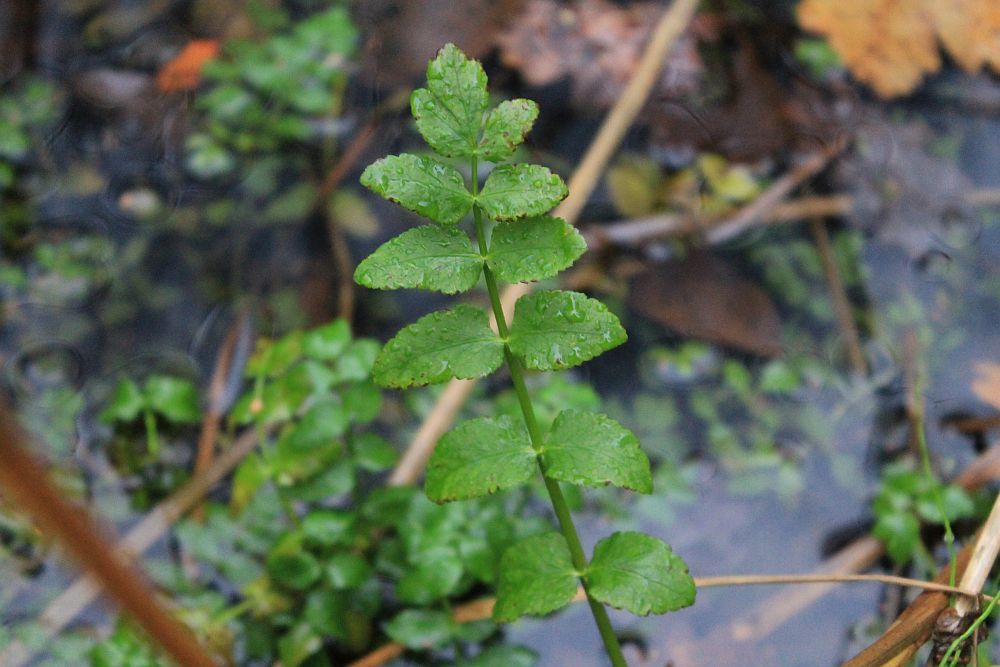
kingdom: Plantae
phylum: Tracheophyta
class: Magnoliopsida
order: Apiales
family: Apiaceae
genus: Helosciadium
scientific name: Helosciadium nodiflorum
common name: Fool's-watercress
